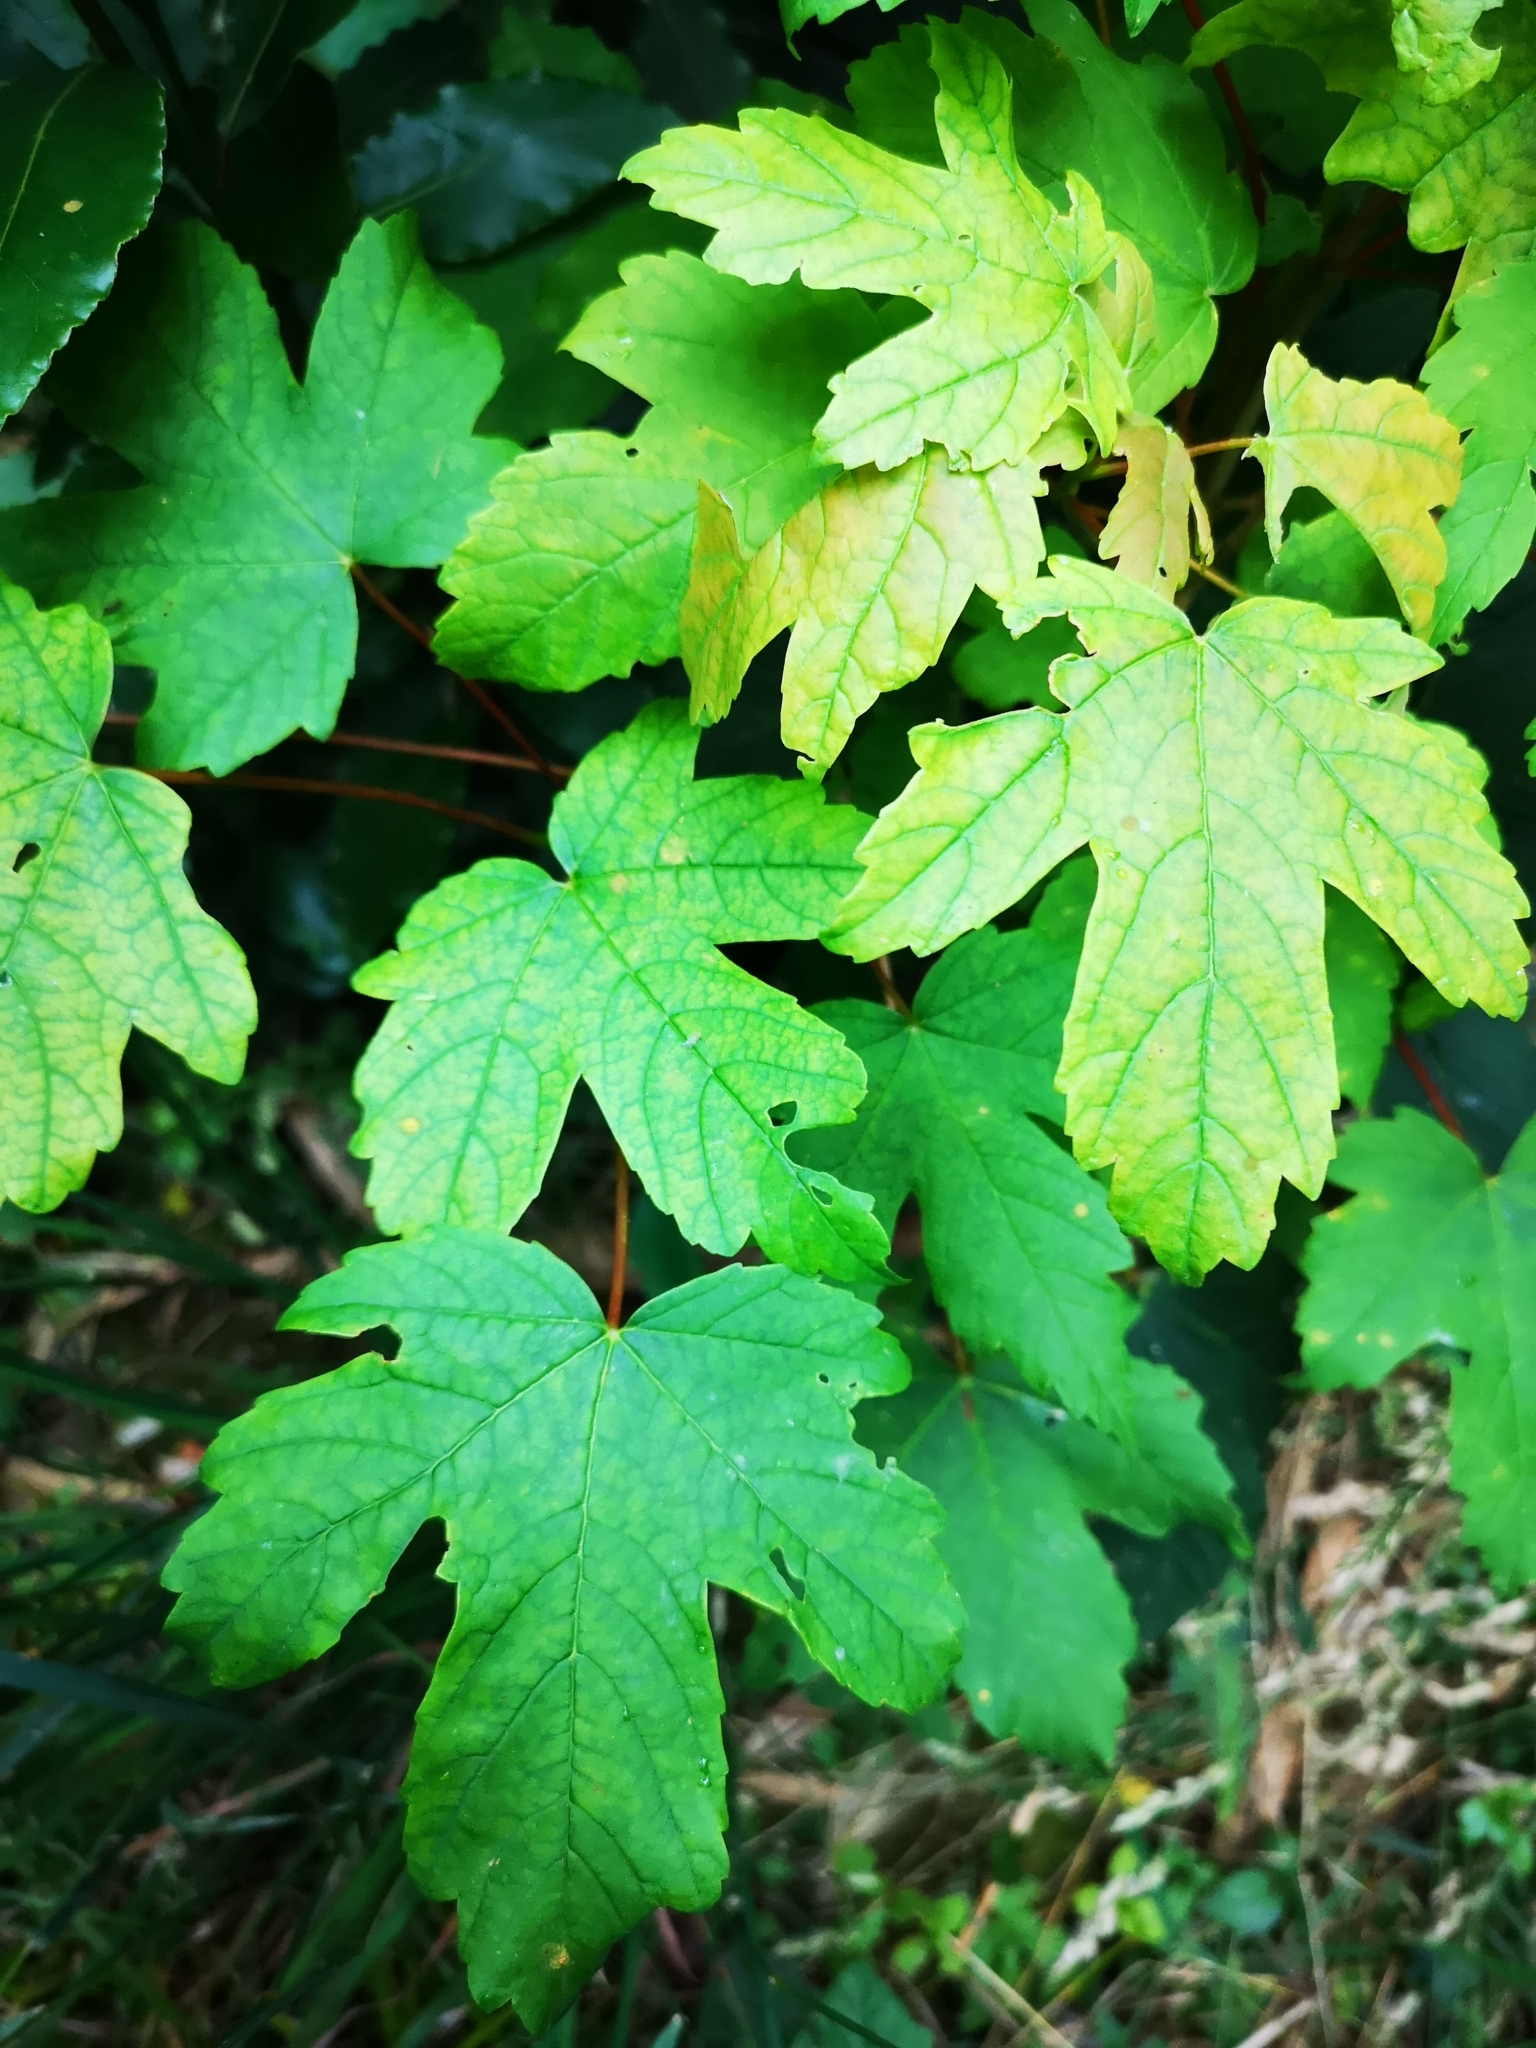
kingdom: Plantae
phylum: Tracheophyta
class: Magnoliopsida
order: Sapindales
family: Sapindaceae
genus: Acer
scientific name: Acer pseudoplatanus
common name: Sycamore
